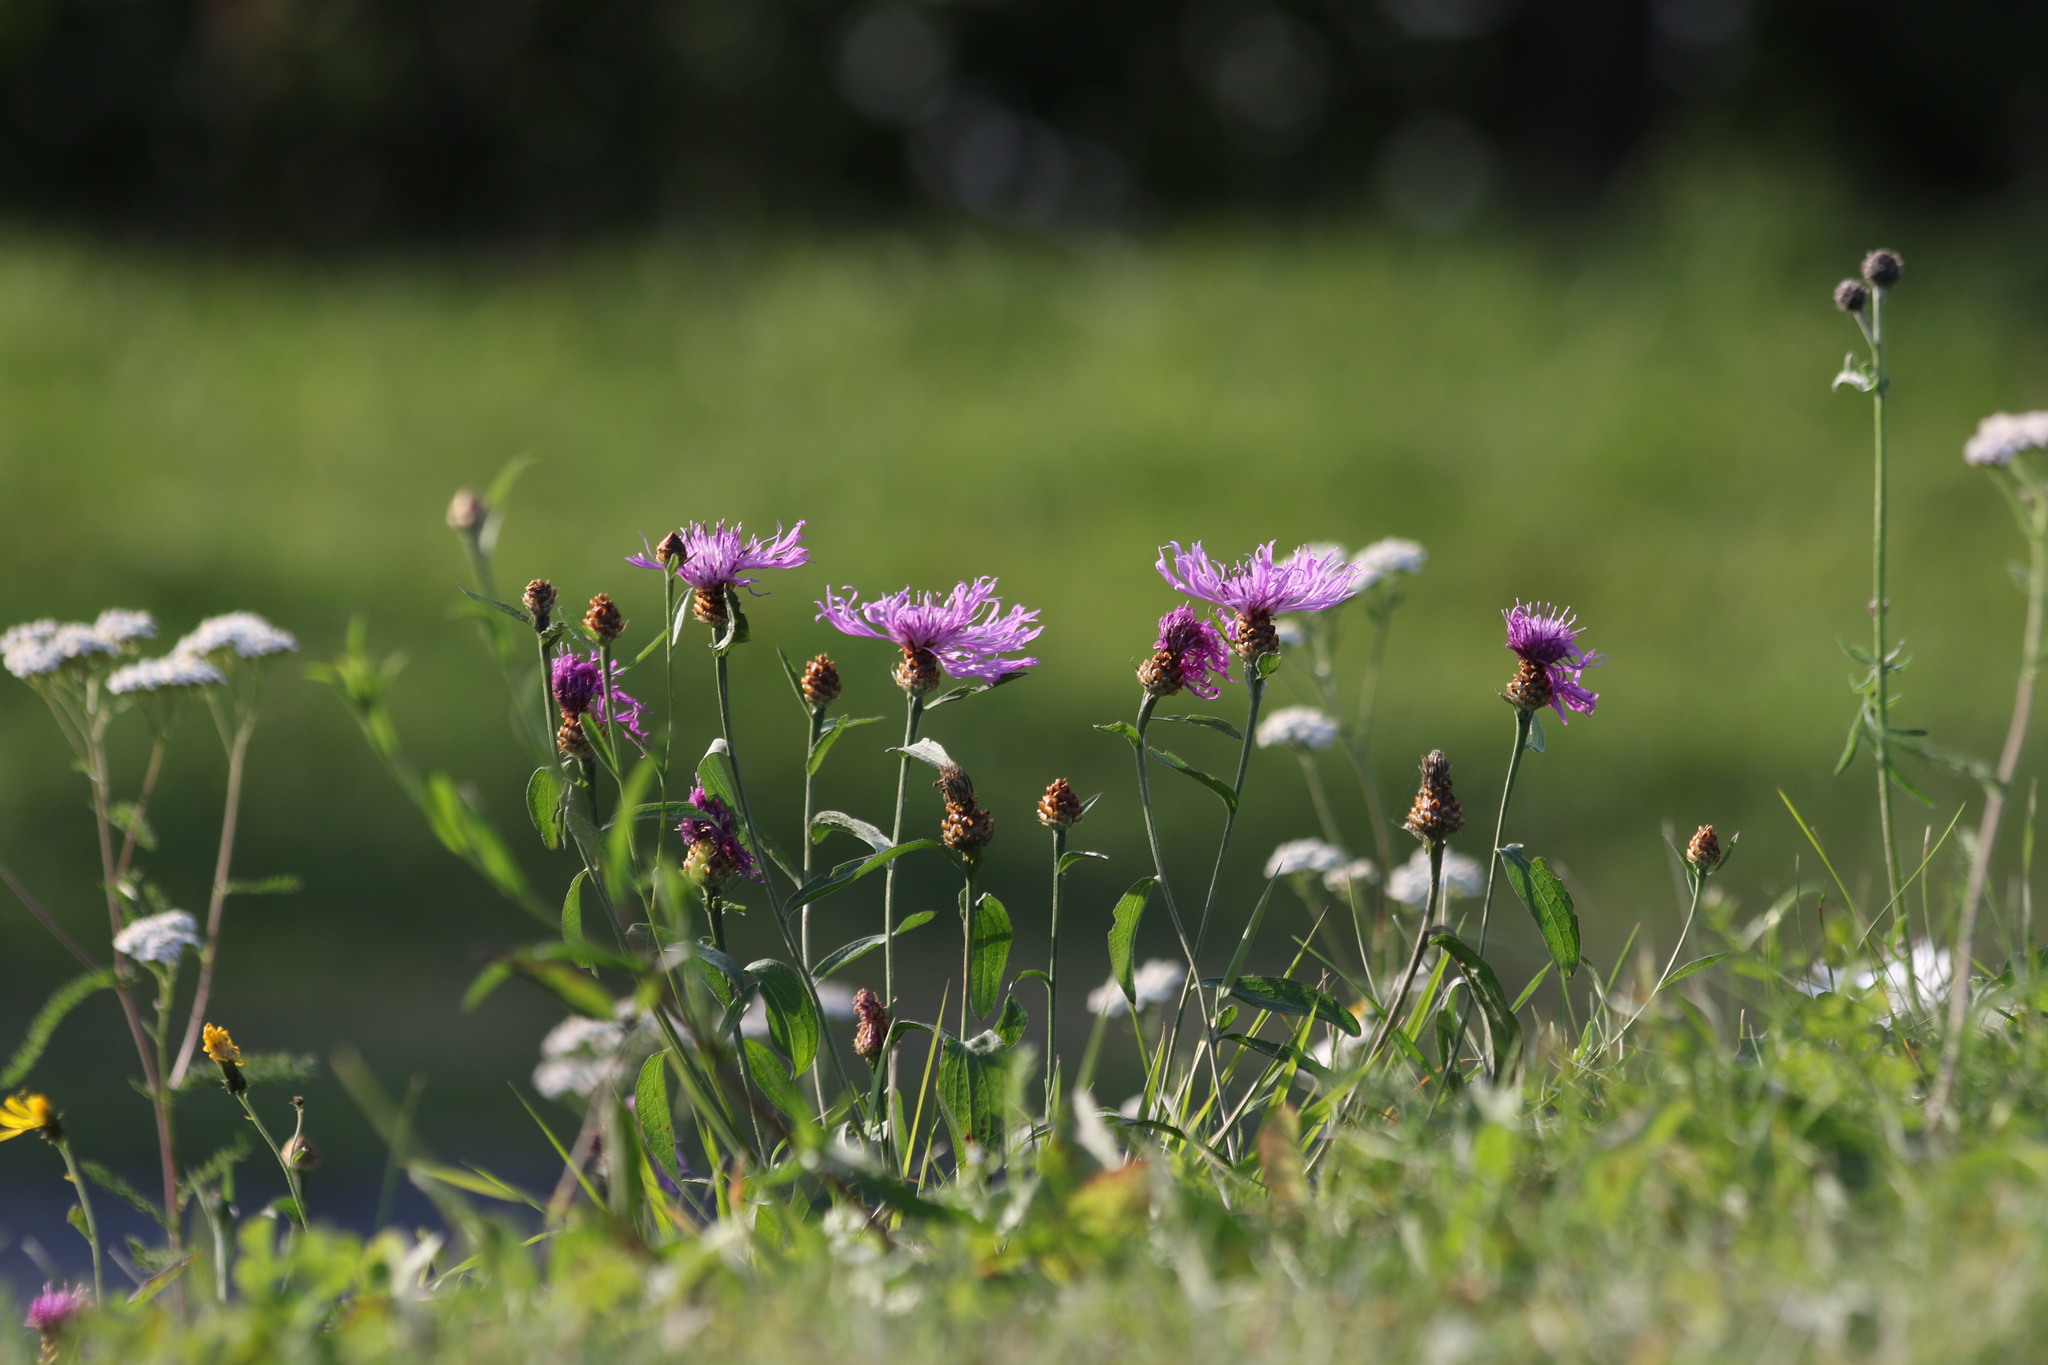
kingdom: Plantae
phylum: Tracheophyta
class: Magnoliopsida
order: Asterales
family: Asteraceae
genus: Centaurea
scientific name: Centaurea jacea
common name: Brown knapweed
